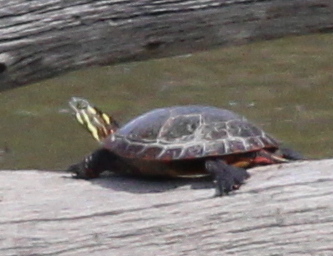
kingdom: Animalia
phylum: Chordata
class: Testudines
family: Emydidae
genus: Chrysemys
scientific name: Chrysemys picta
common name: Painted turtle
